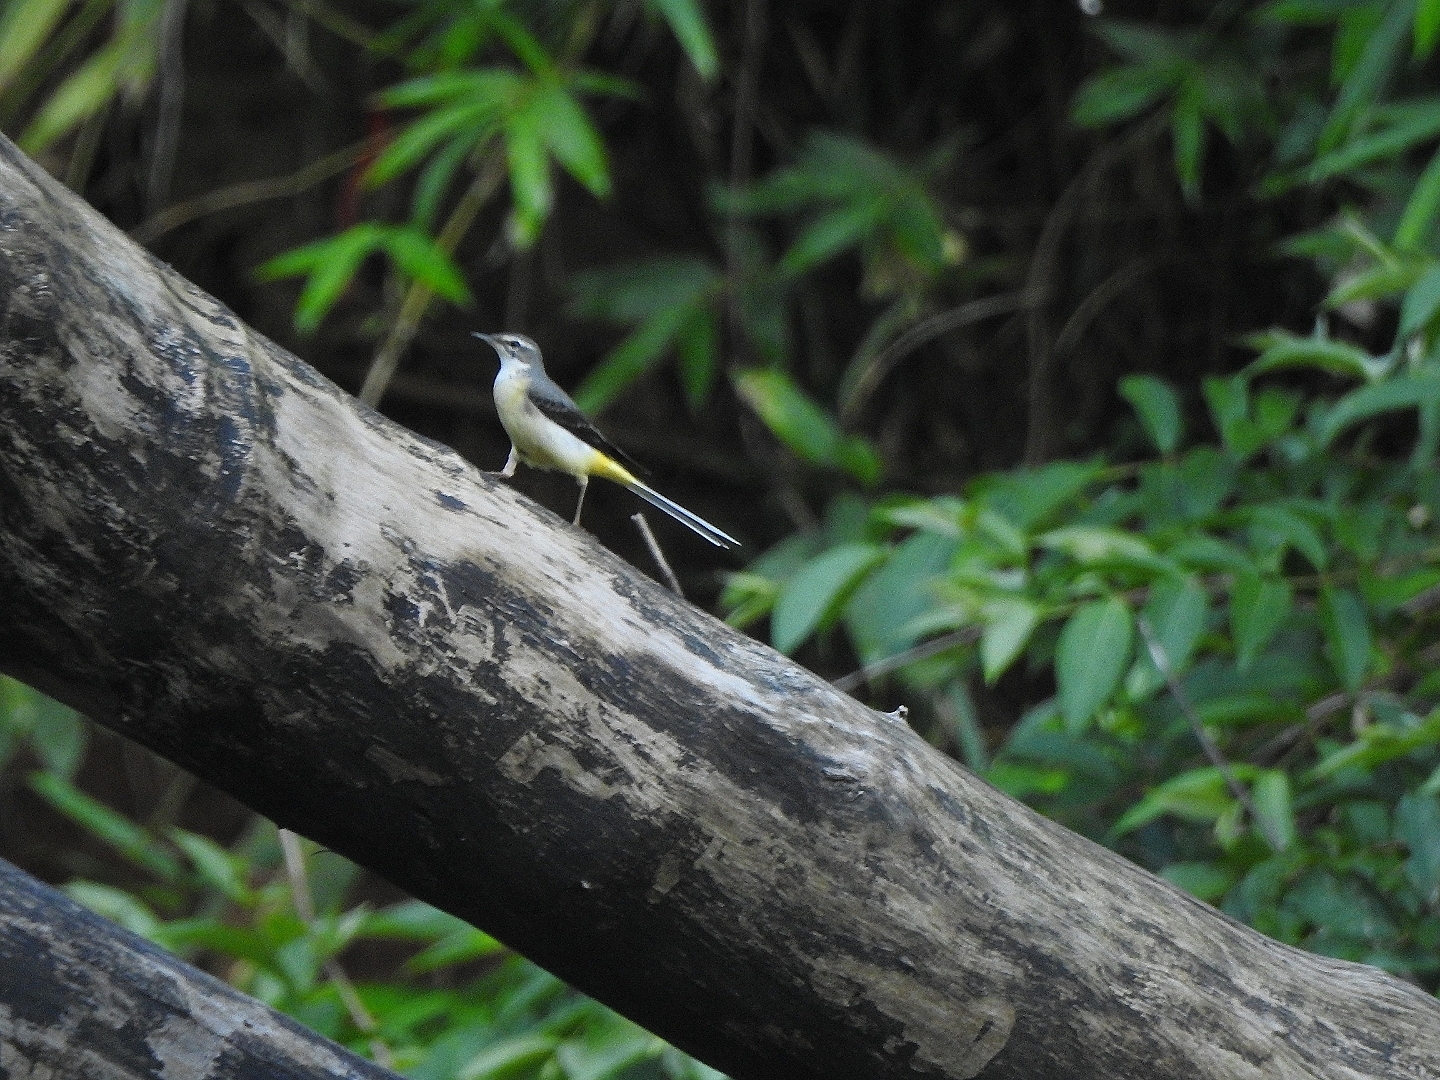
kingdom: Animalia
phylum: Chordata
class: Aves
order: Passeriformes
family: Motacillidae
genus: Motacilla
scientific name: Motacilla cinerea
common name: Grey wagtail
